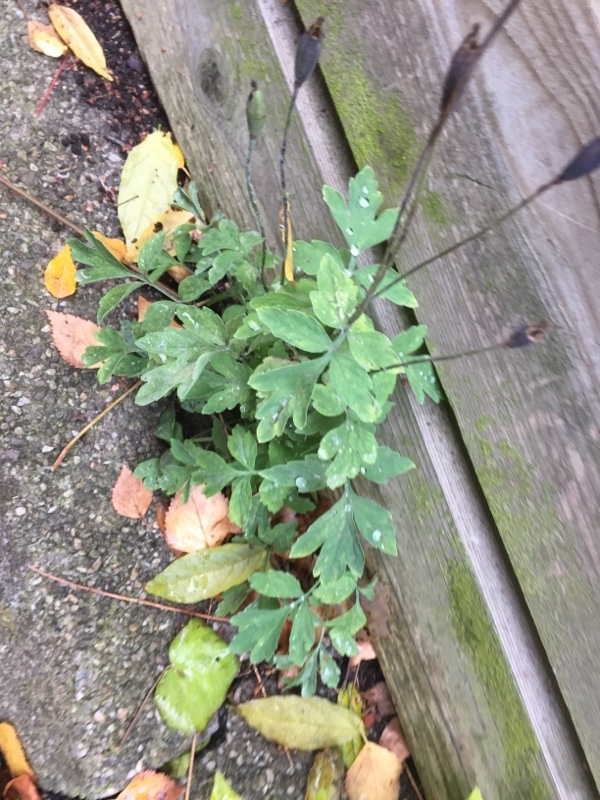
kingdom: Plantae
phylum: Tracheophyta
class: Magnoliopsida
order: Ranunculales
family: Papaveraceae
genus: Papaver
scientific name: Papaver cambricum
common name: Poppy
